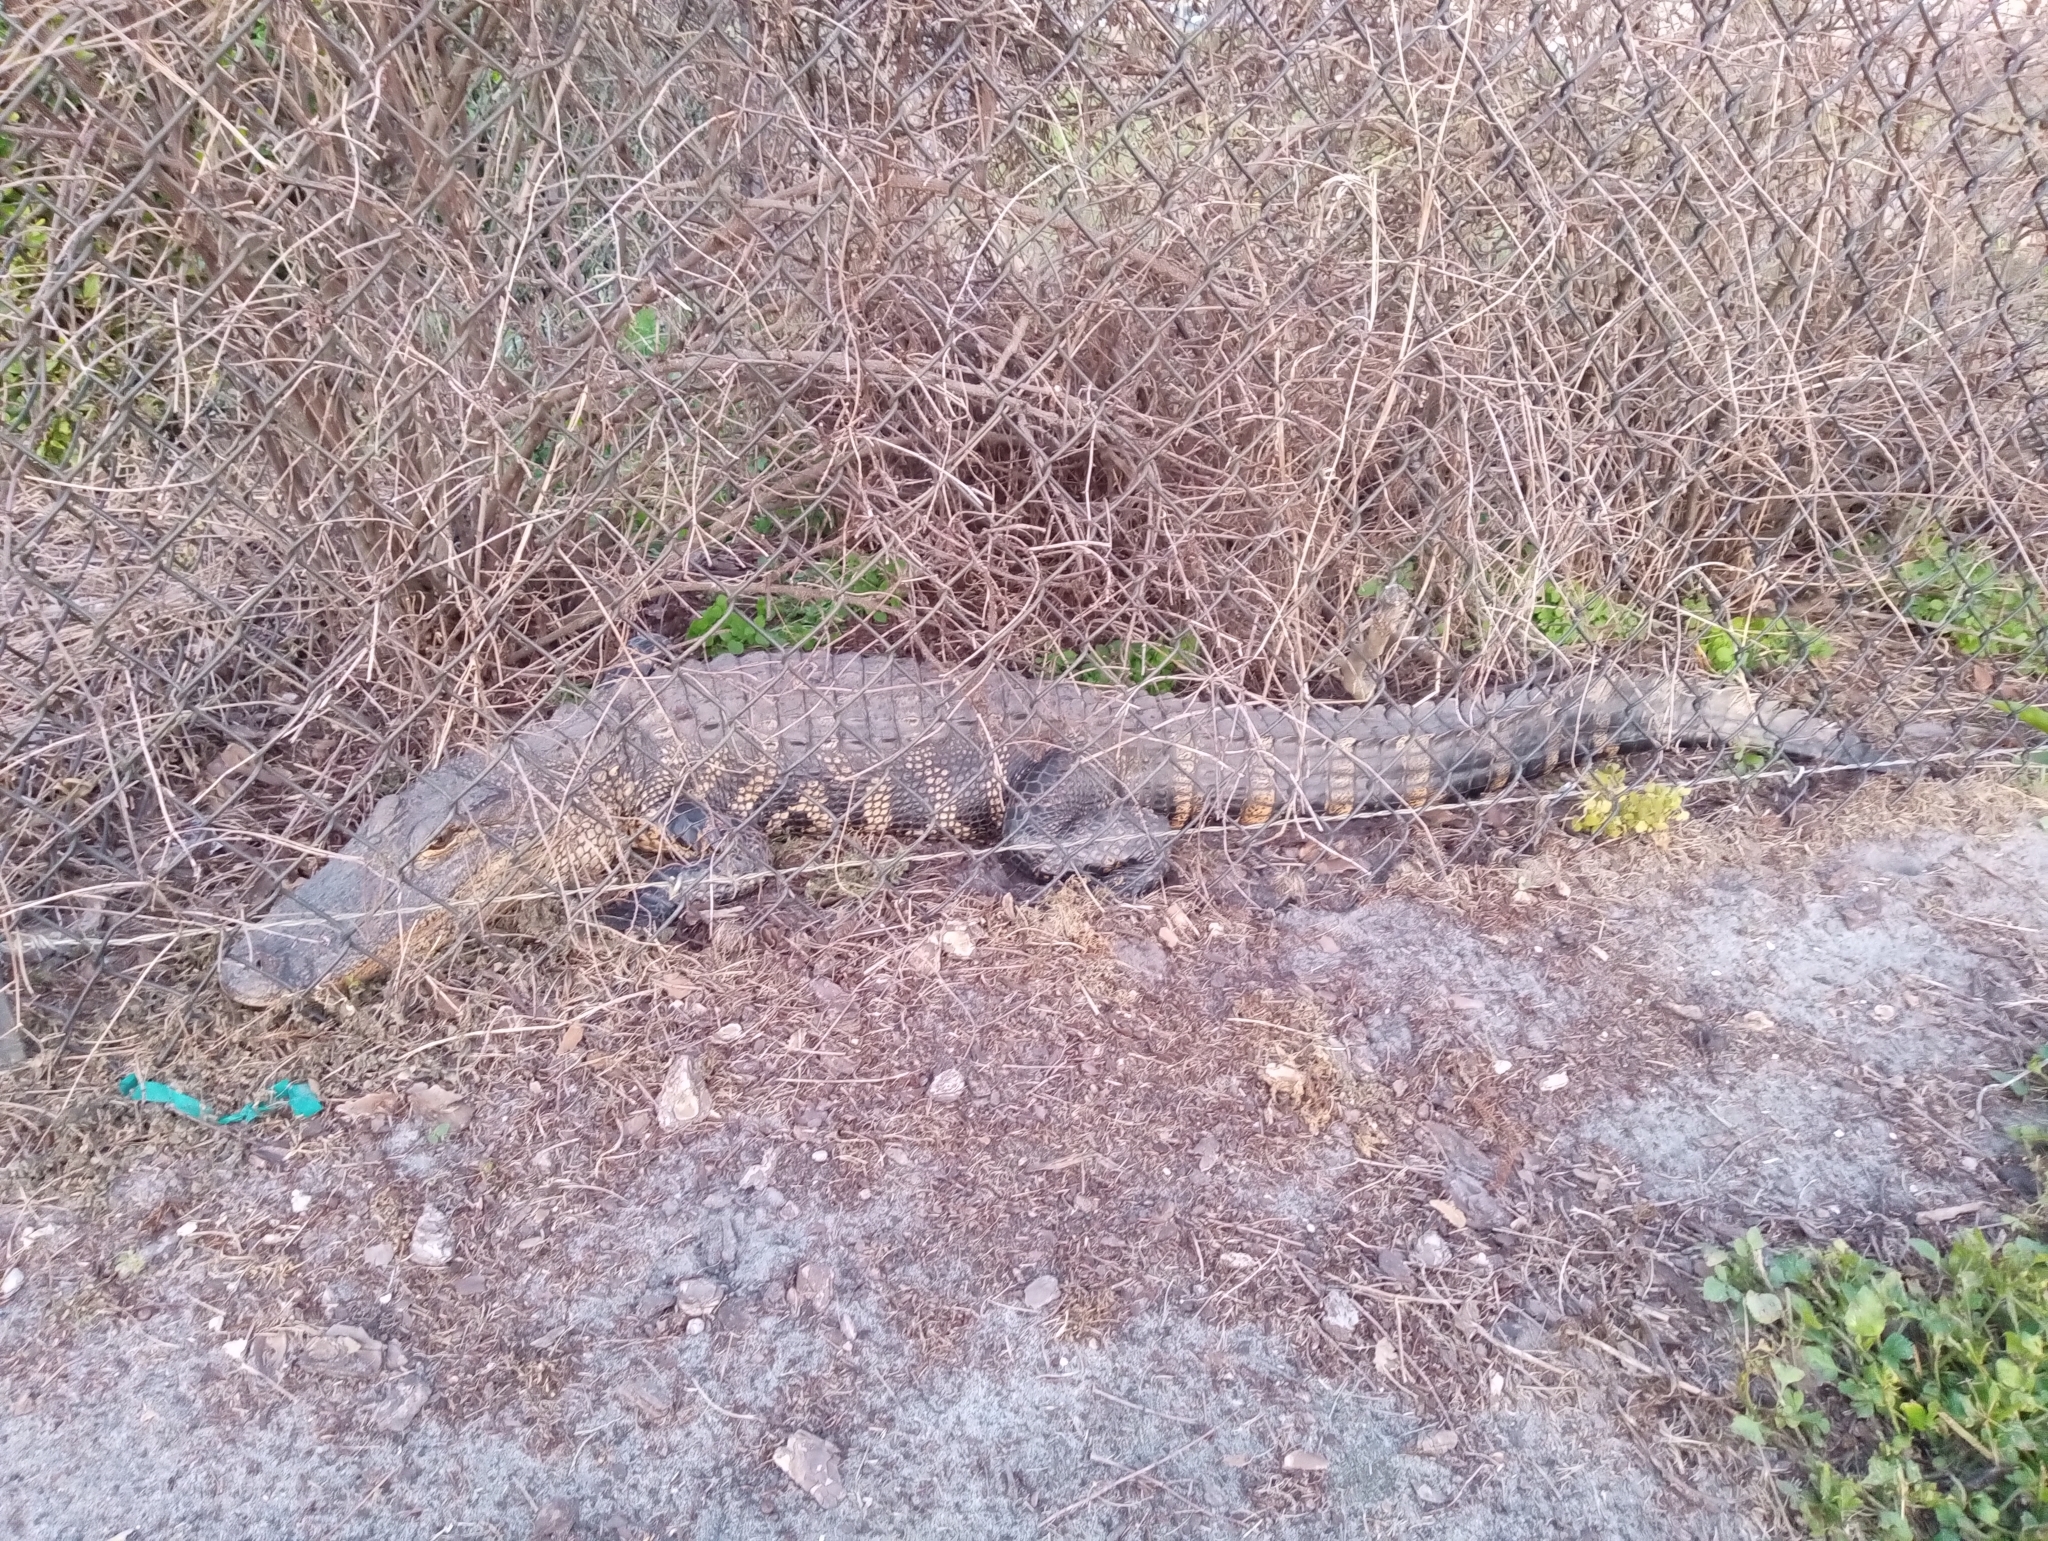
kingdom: Animalia
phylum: Chordata
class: Crocodylia
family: Alligatoridae
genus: Alligator
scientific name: Alligator mississippiensis
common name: American alligator
